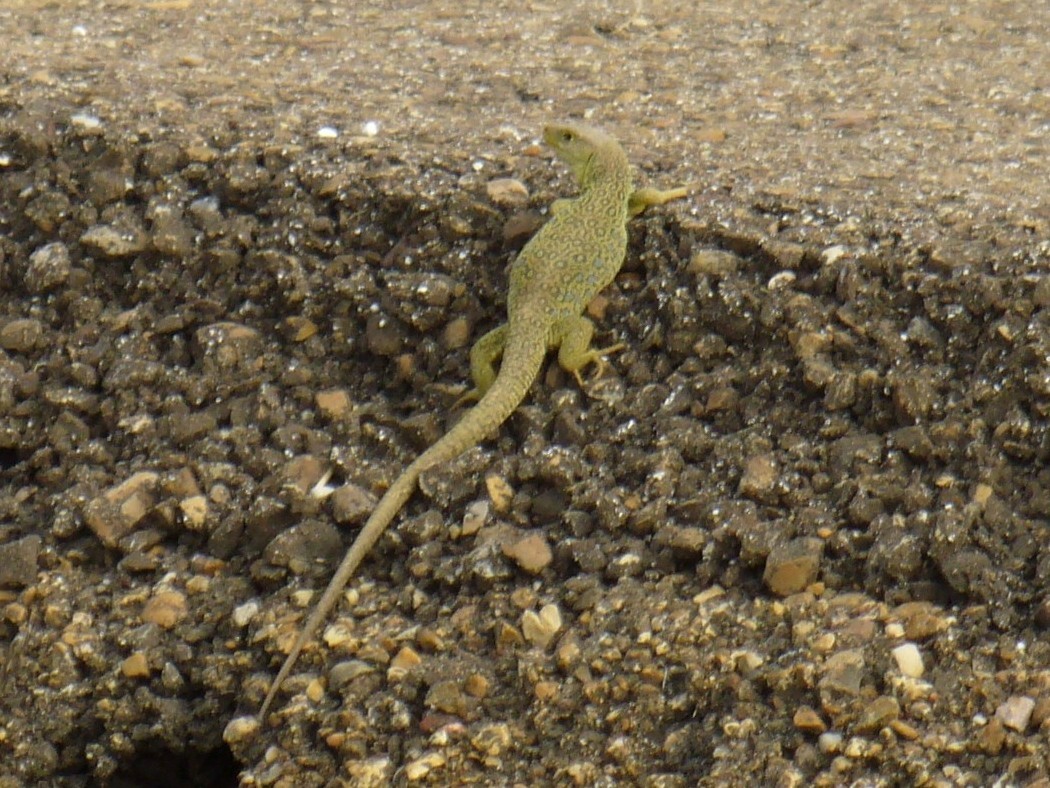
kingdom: Animalia
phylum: Chordata
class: Squamata
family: Lacertidae
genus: Timon
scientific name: Timon lepidus
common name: Ocellated lizard
